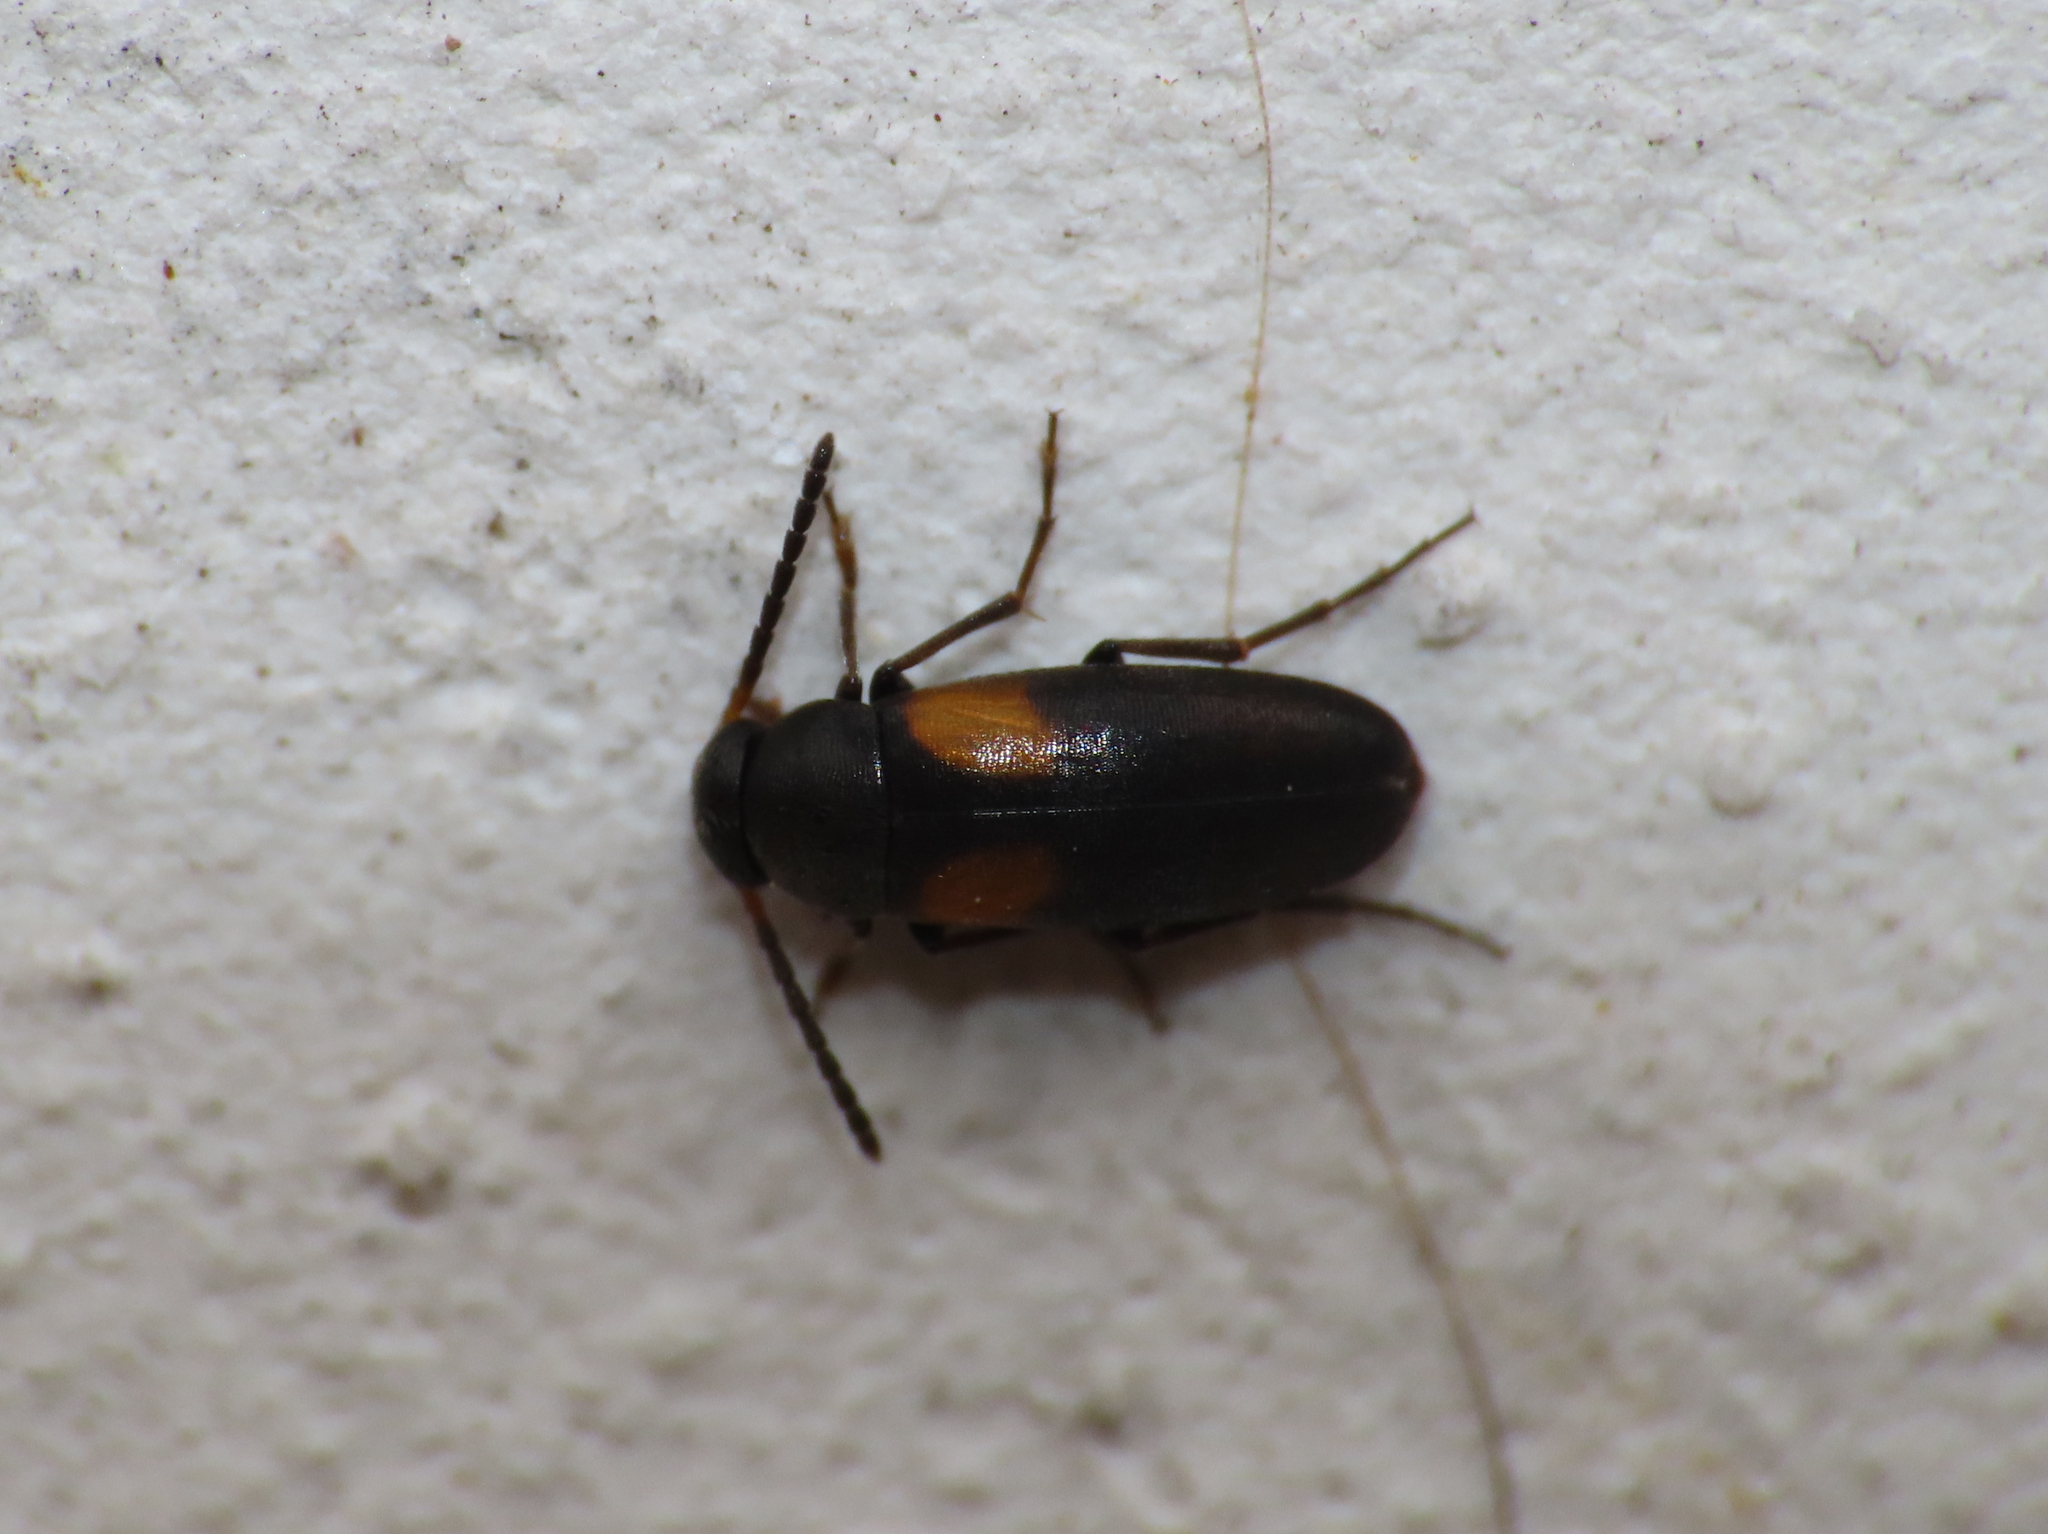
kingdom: Animalia
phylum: Arthropoda
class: Insecta
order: Coleoptera
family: Scraptiidae
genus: Anaspis
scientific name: Anaspis fasciata
